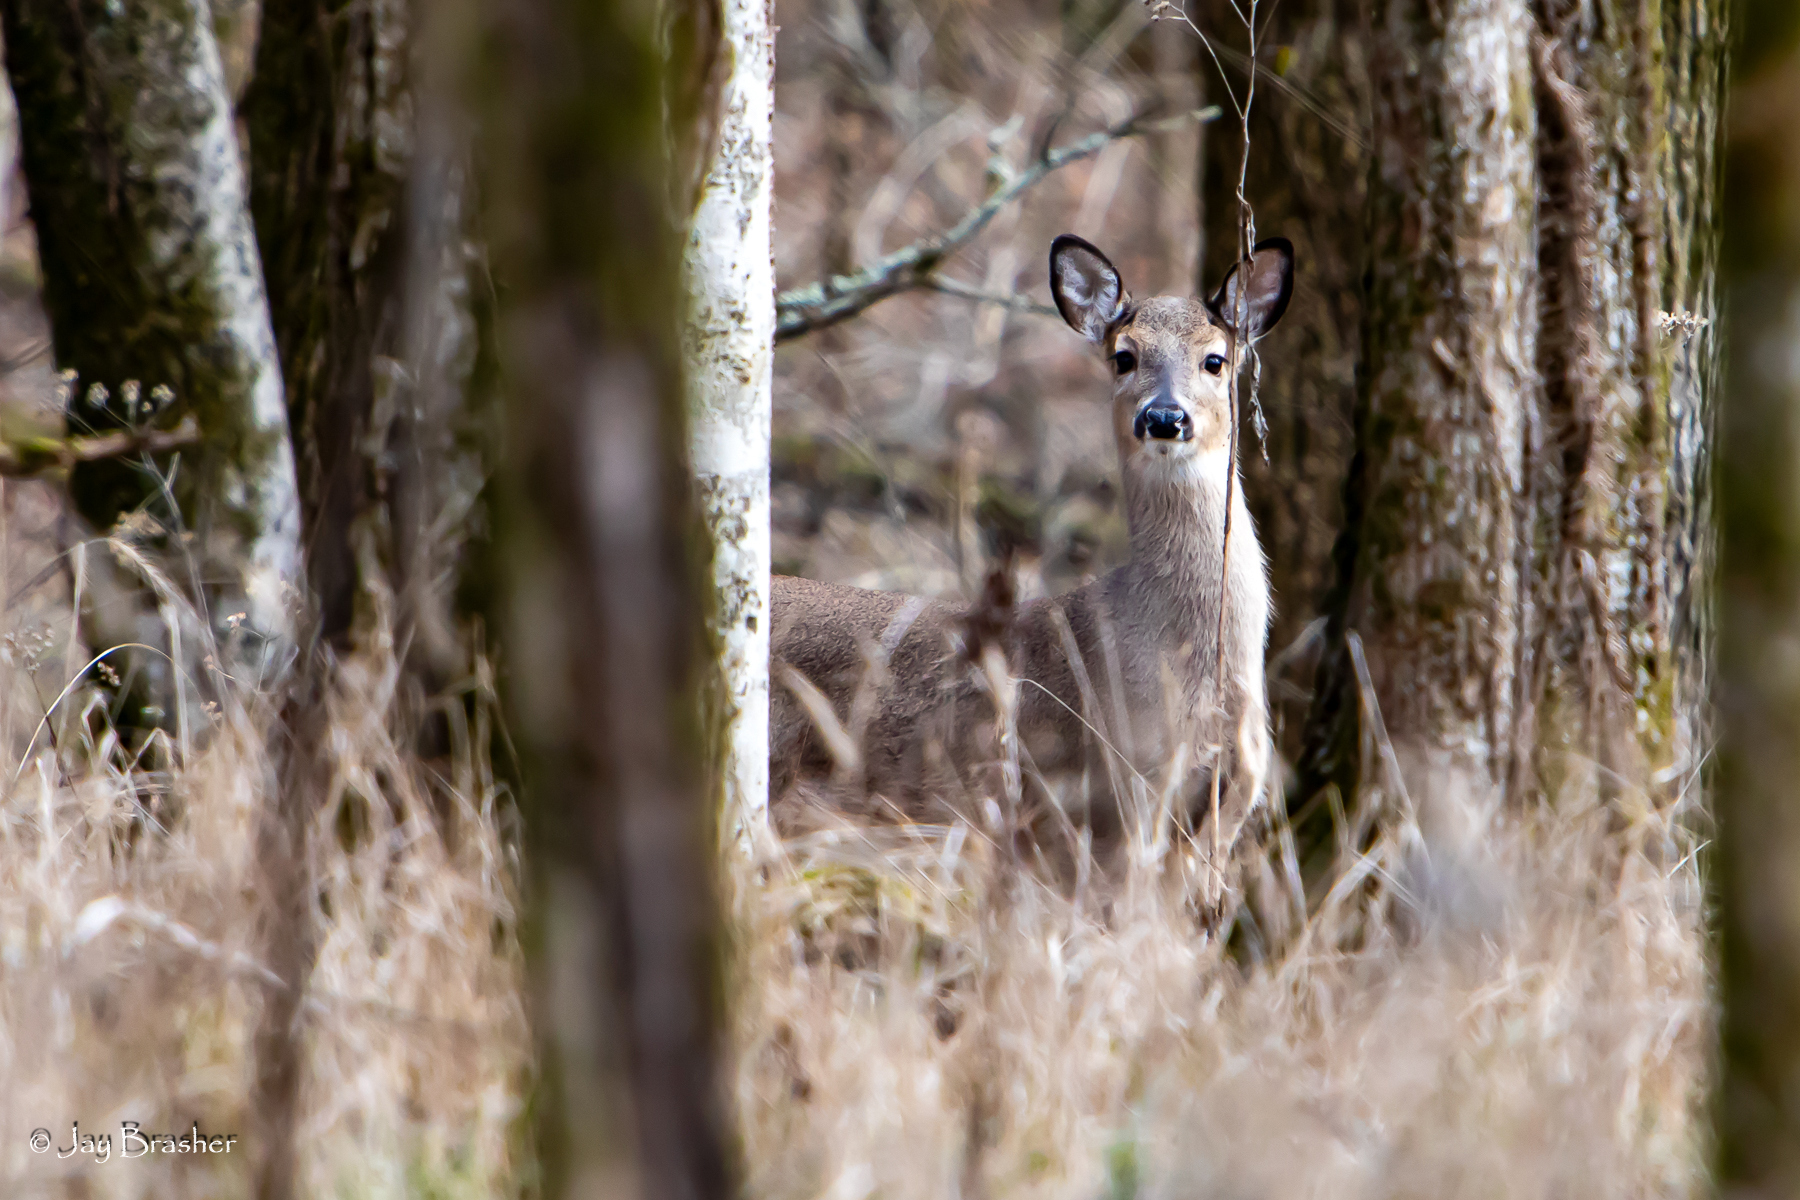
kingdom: Animalia
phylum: Chordata
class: Mammalia
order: Artiodactyla
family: Cervidae
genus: Odocoileus
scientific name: Odocoileus virginianus
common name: White-tailed deer
